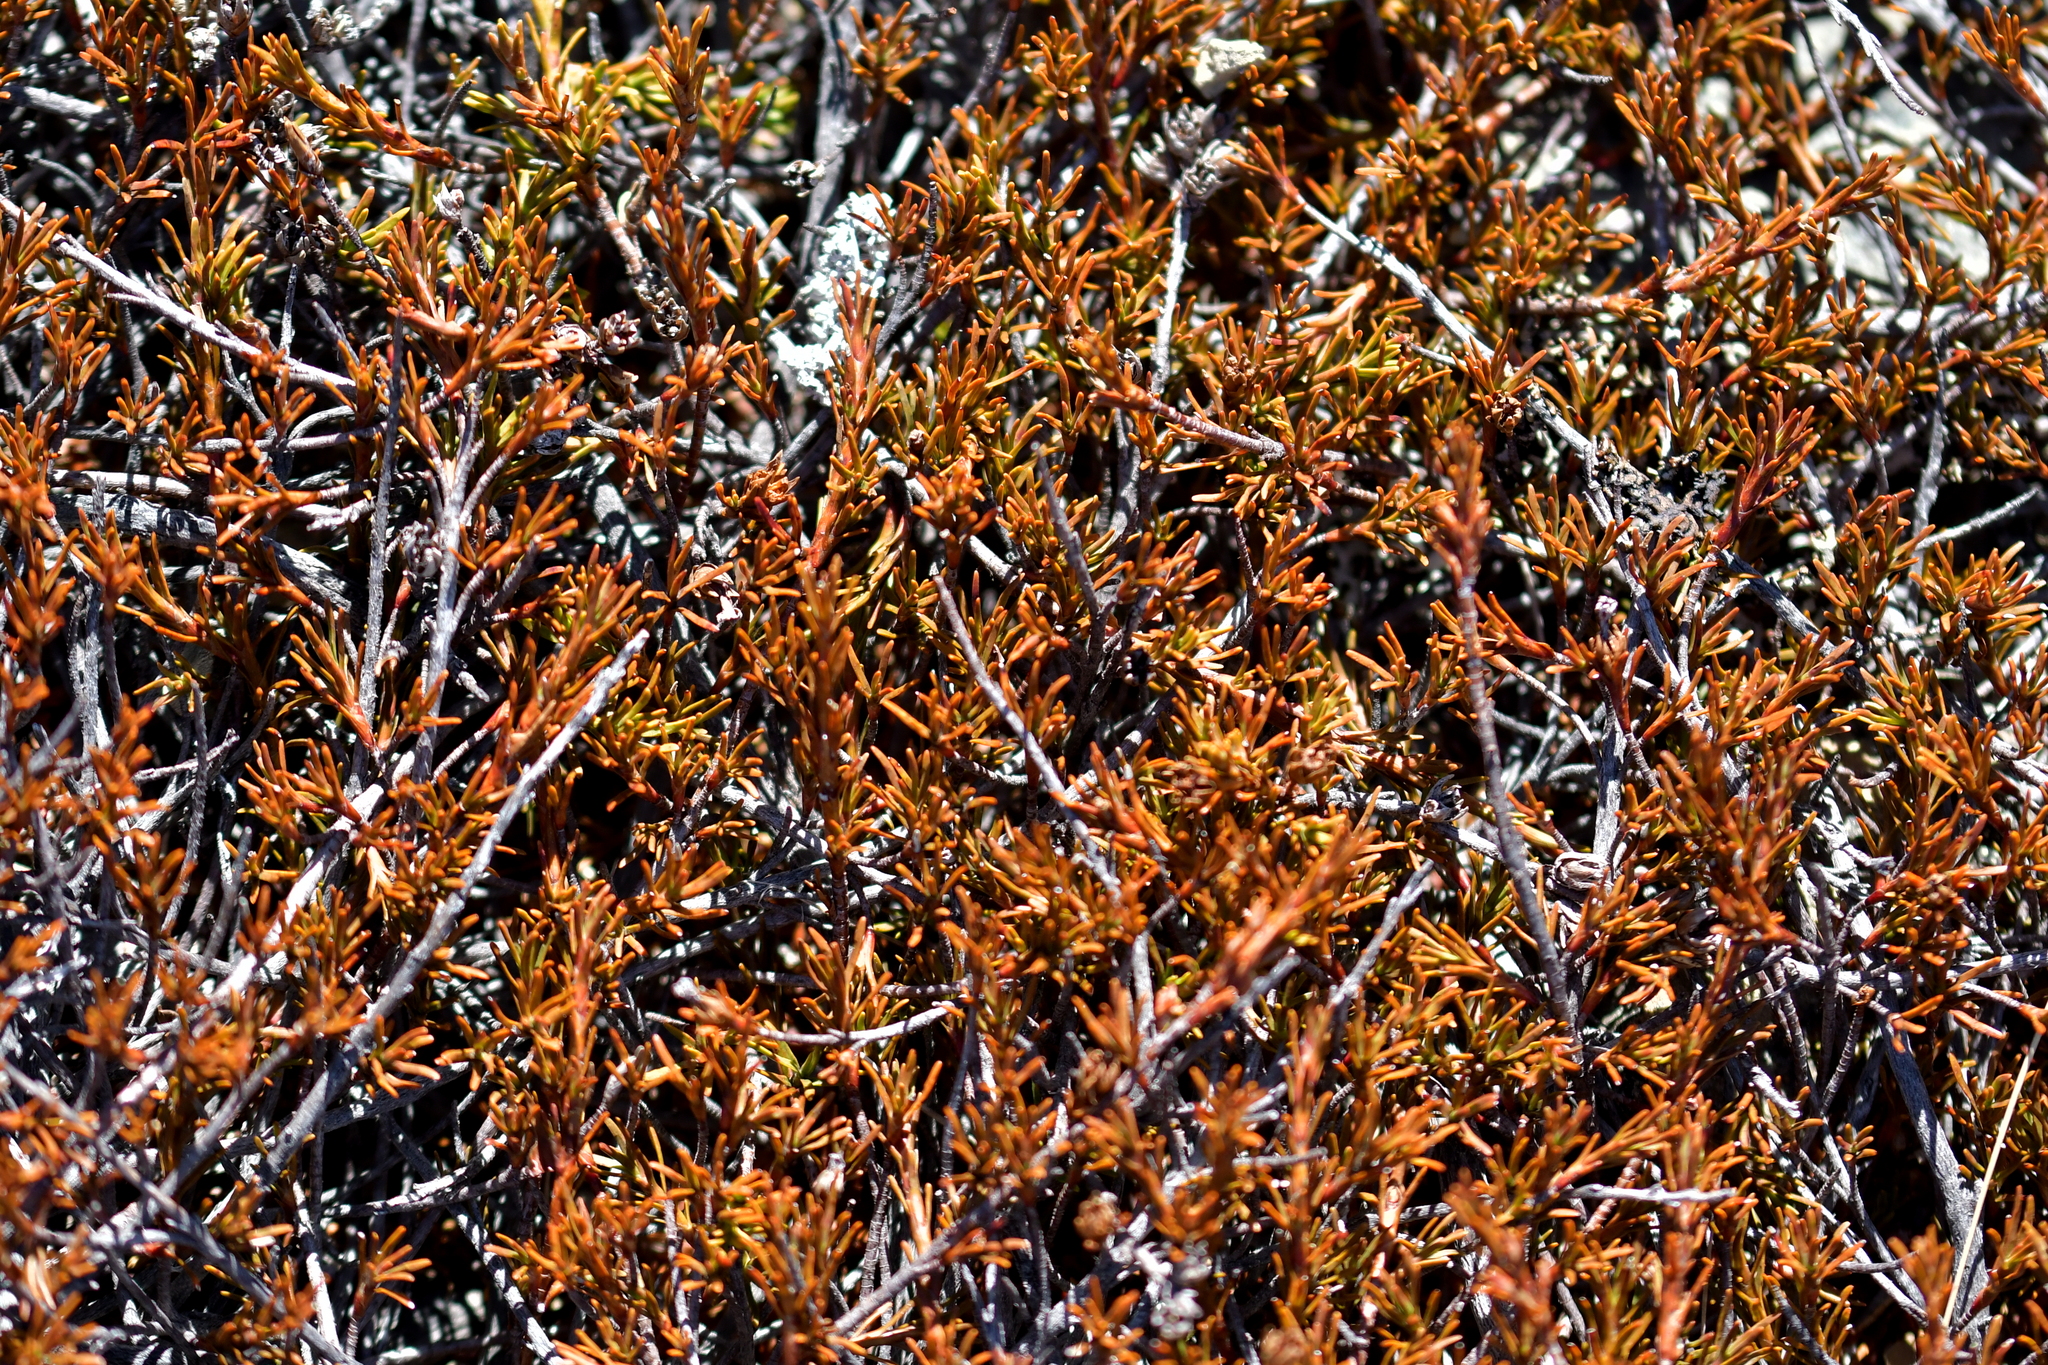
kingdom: Plantae
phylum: Tracheophyta
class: Magnoliopsida
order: Ericales
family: Ericaceae
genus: Dracophyllum
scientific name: Dracophyllum pronum
